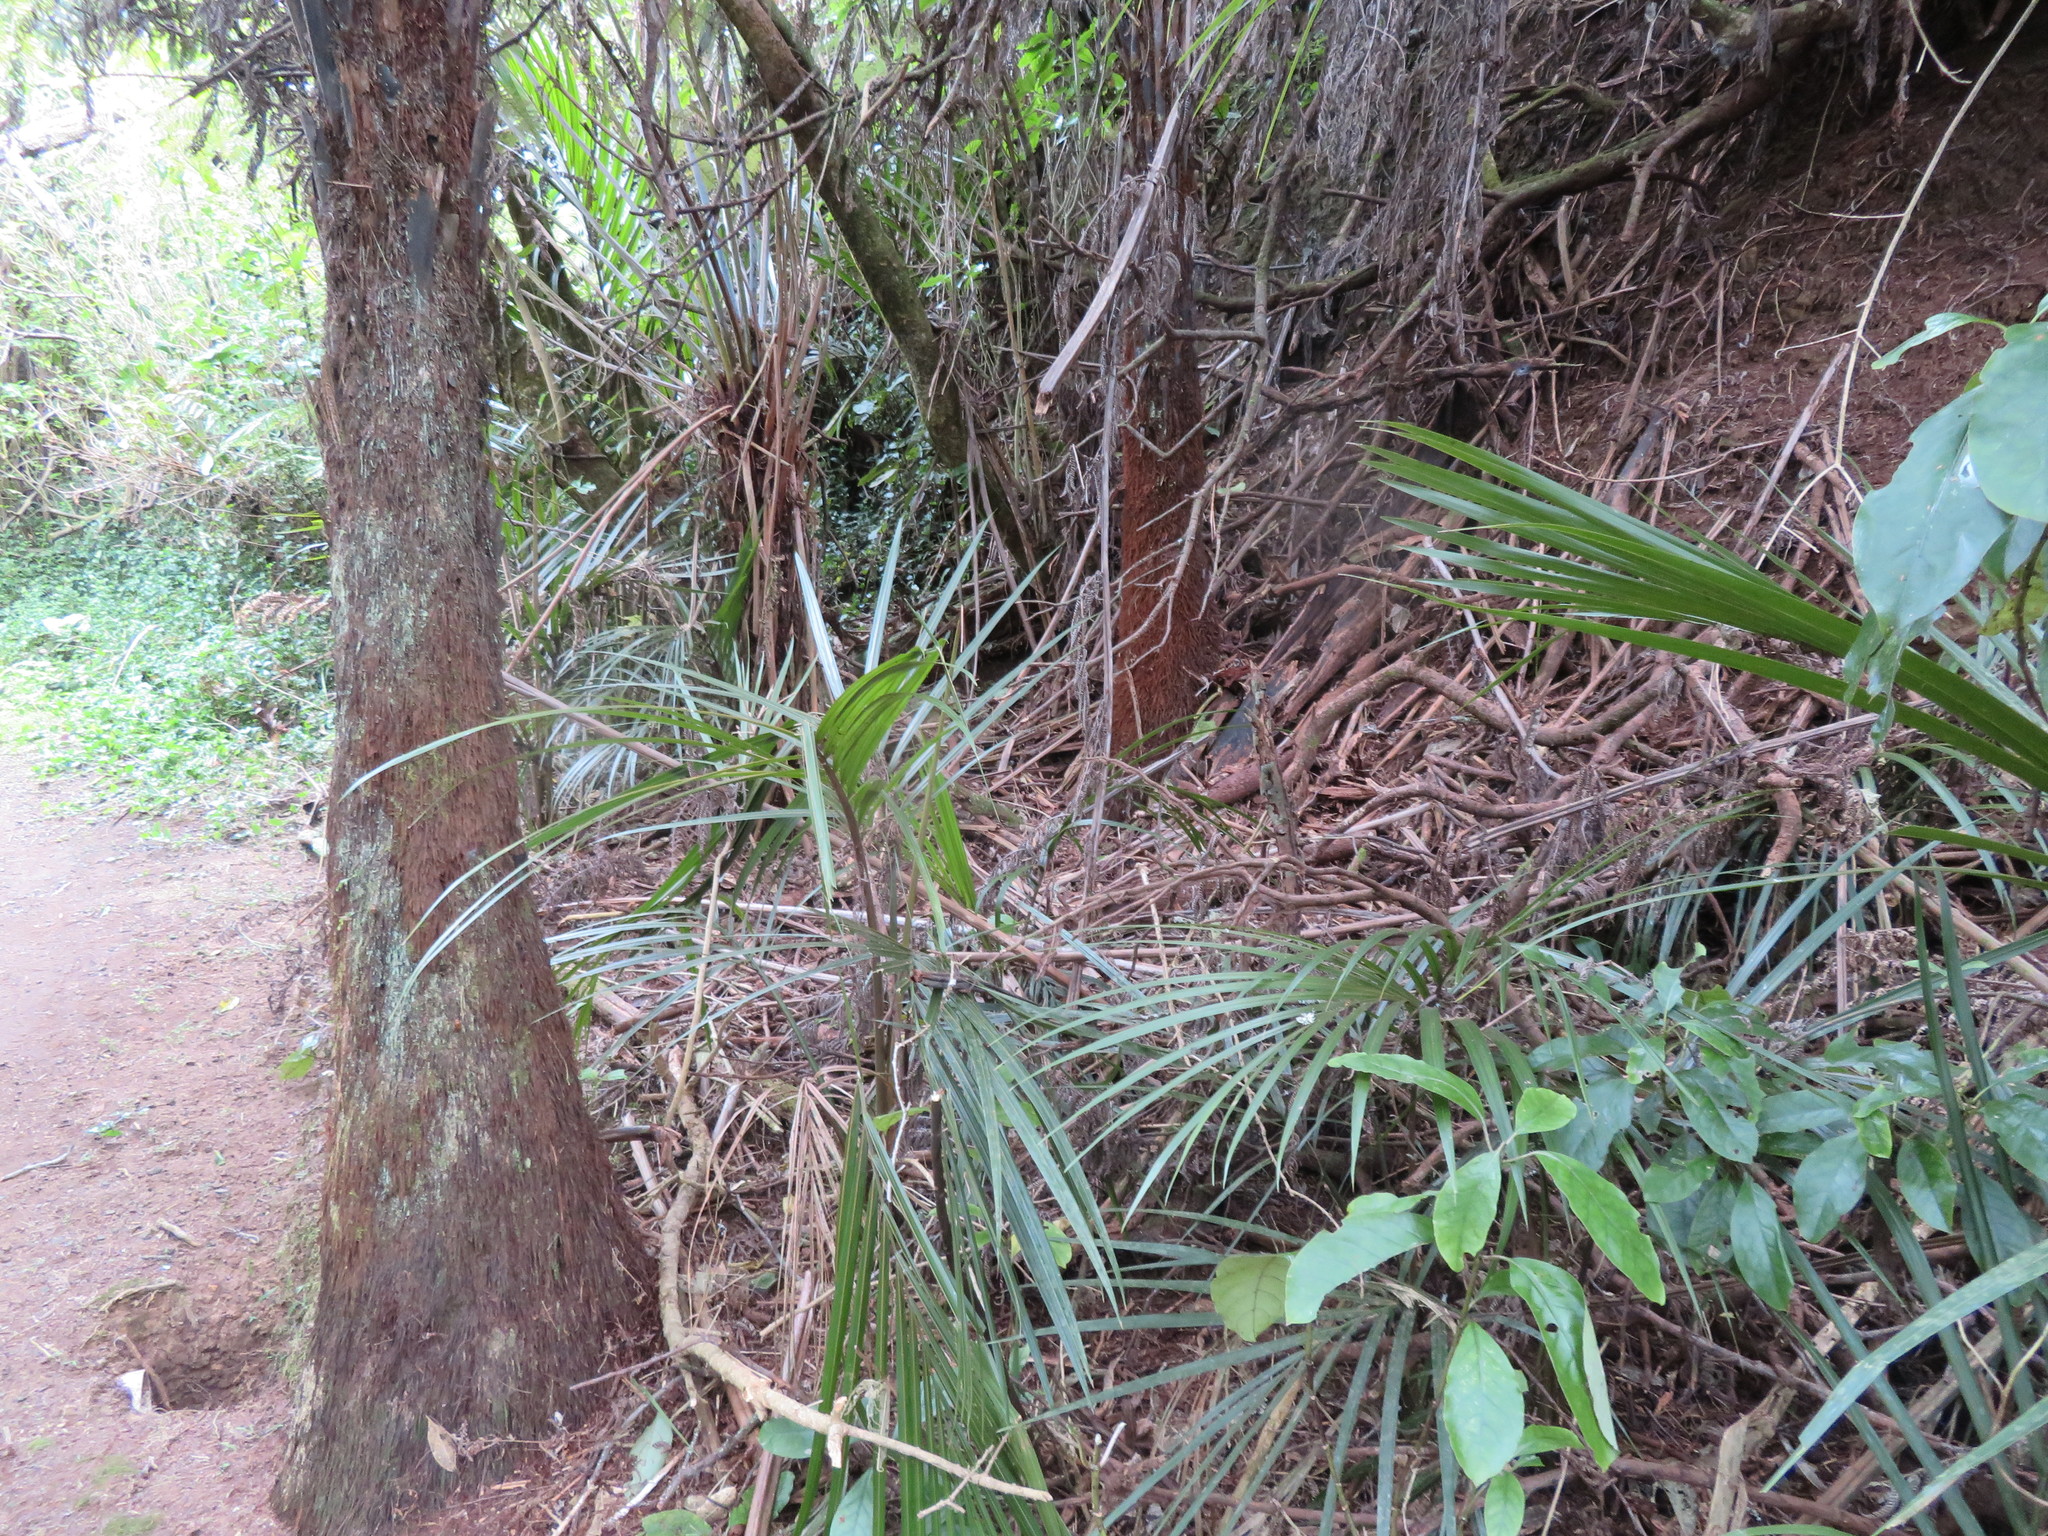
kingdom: Plantae
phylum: Tracheophyta
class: Liliopsida
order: Arecales
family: Arecaceae
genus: Rhopalostylis
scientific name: Rhopalostylis sapida
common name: Feather-duster palm
